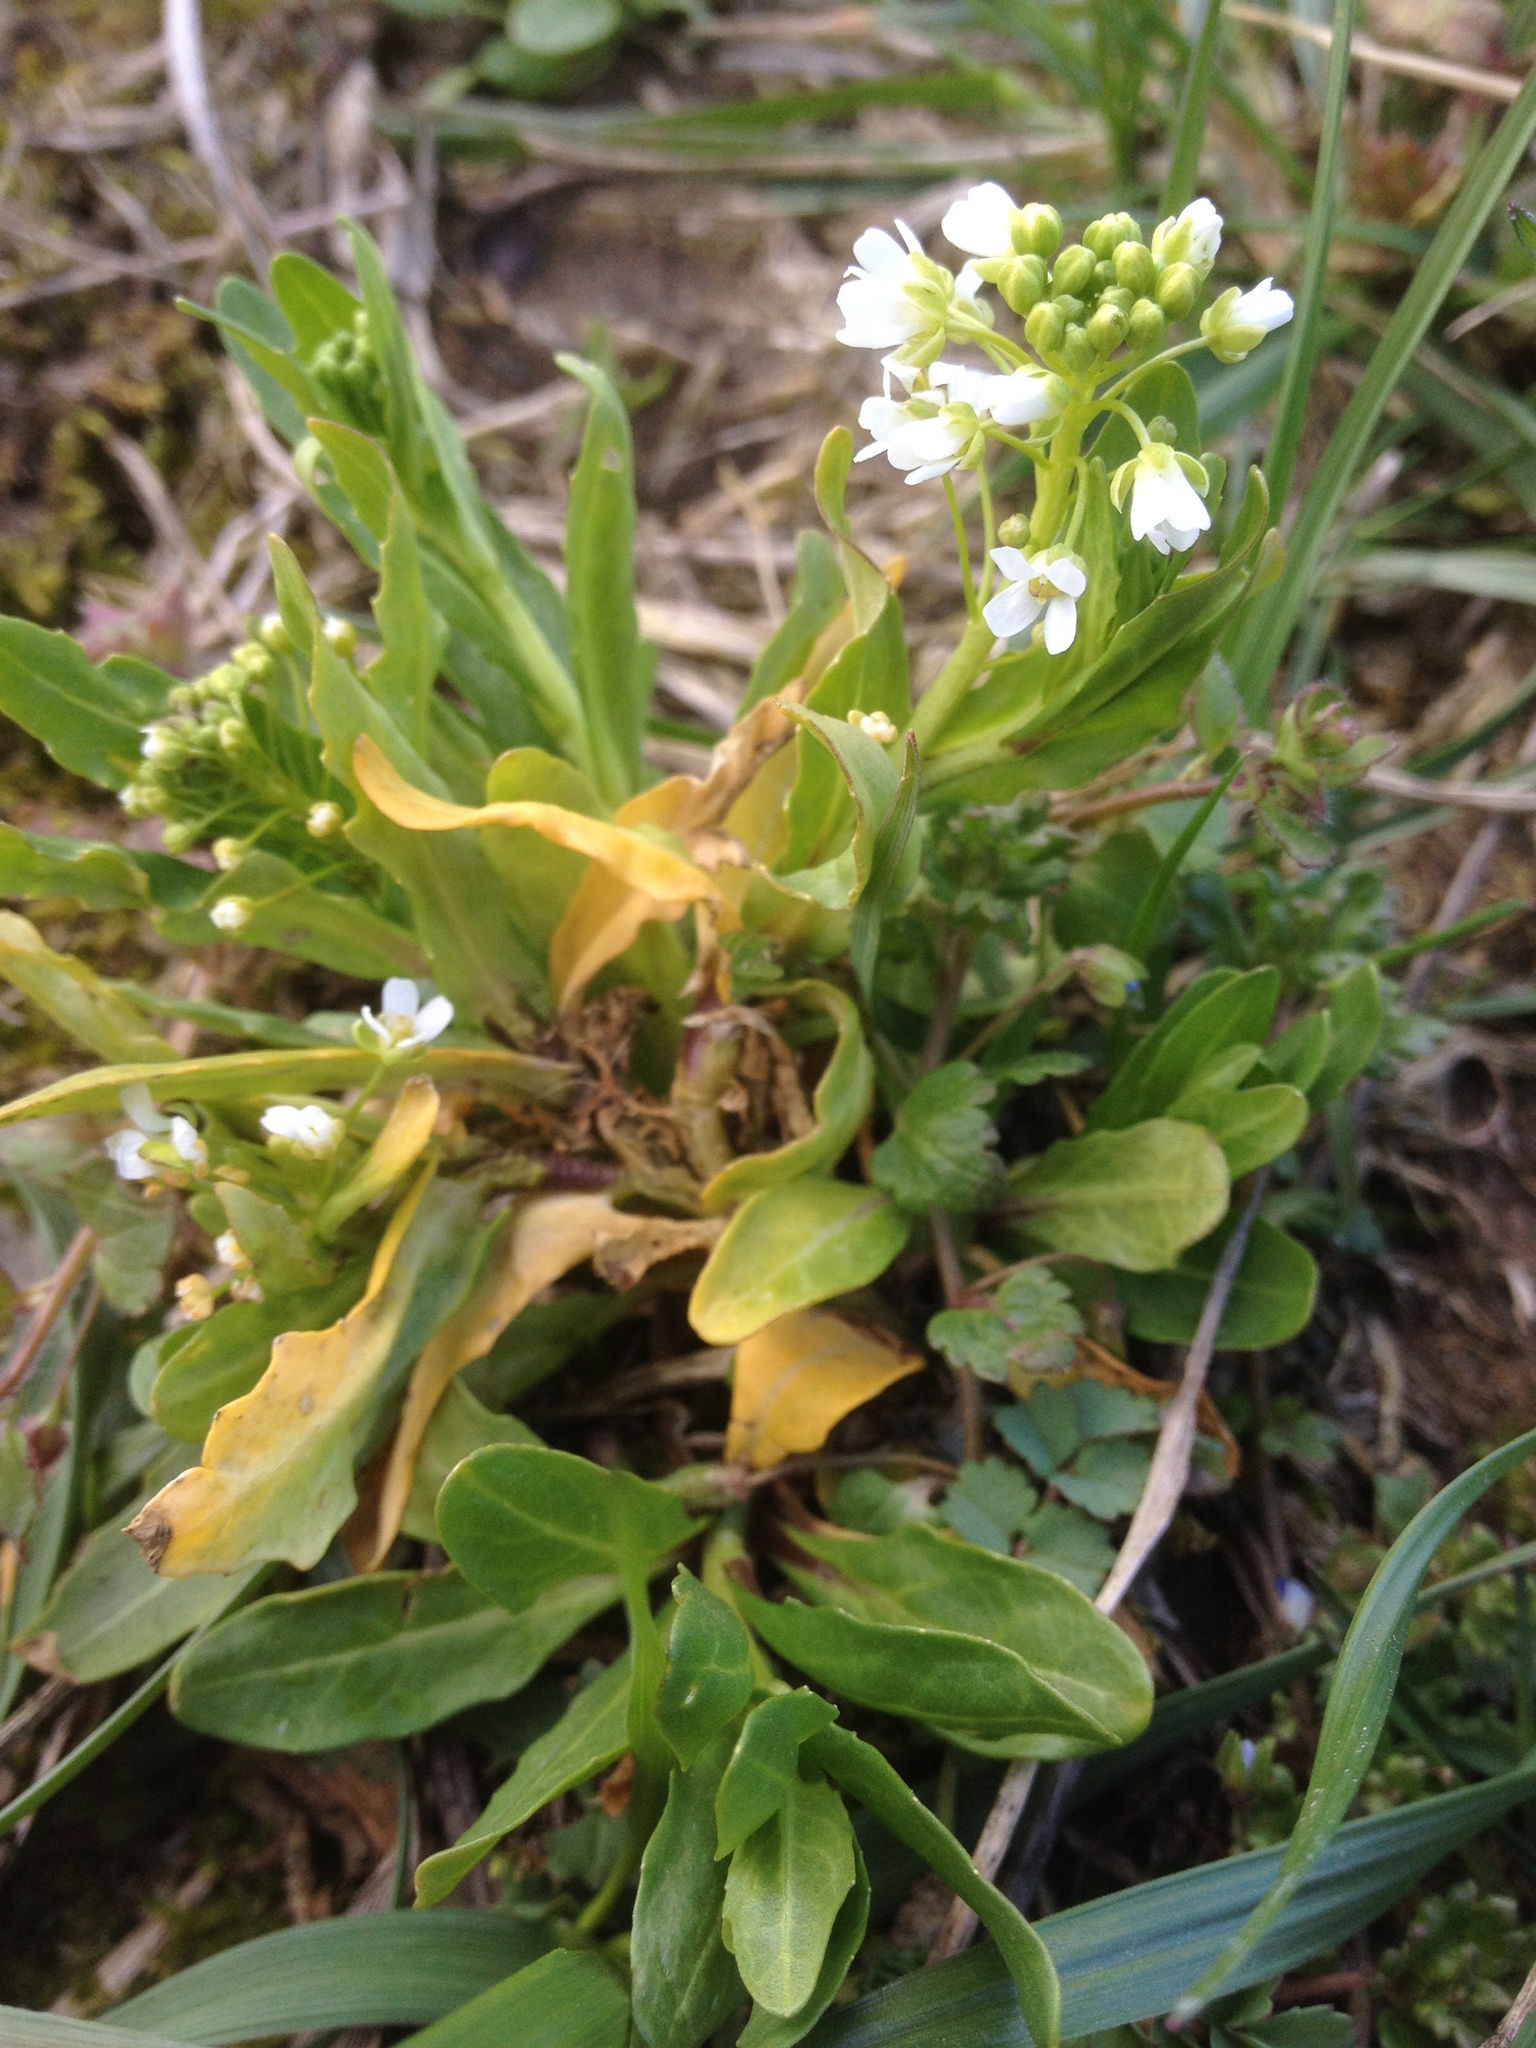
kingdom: Plantae
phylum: Tracheophyta
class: Magnoliopsida
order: Brassicales
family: Brassicaceae
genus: Thlaspi
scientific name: Thlaspi arvense
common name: Field pennycress
